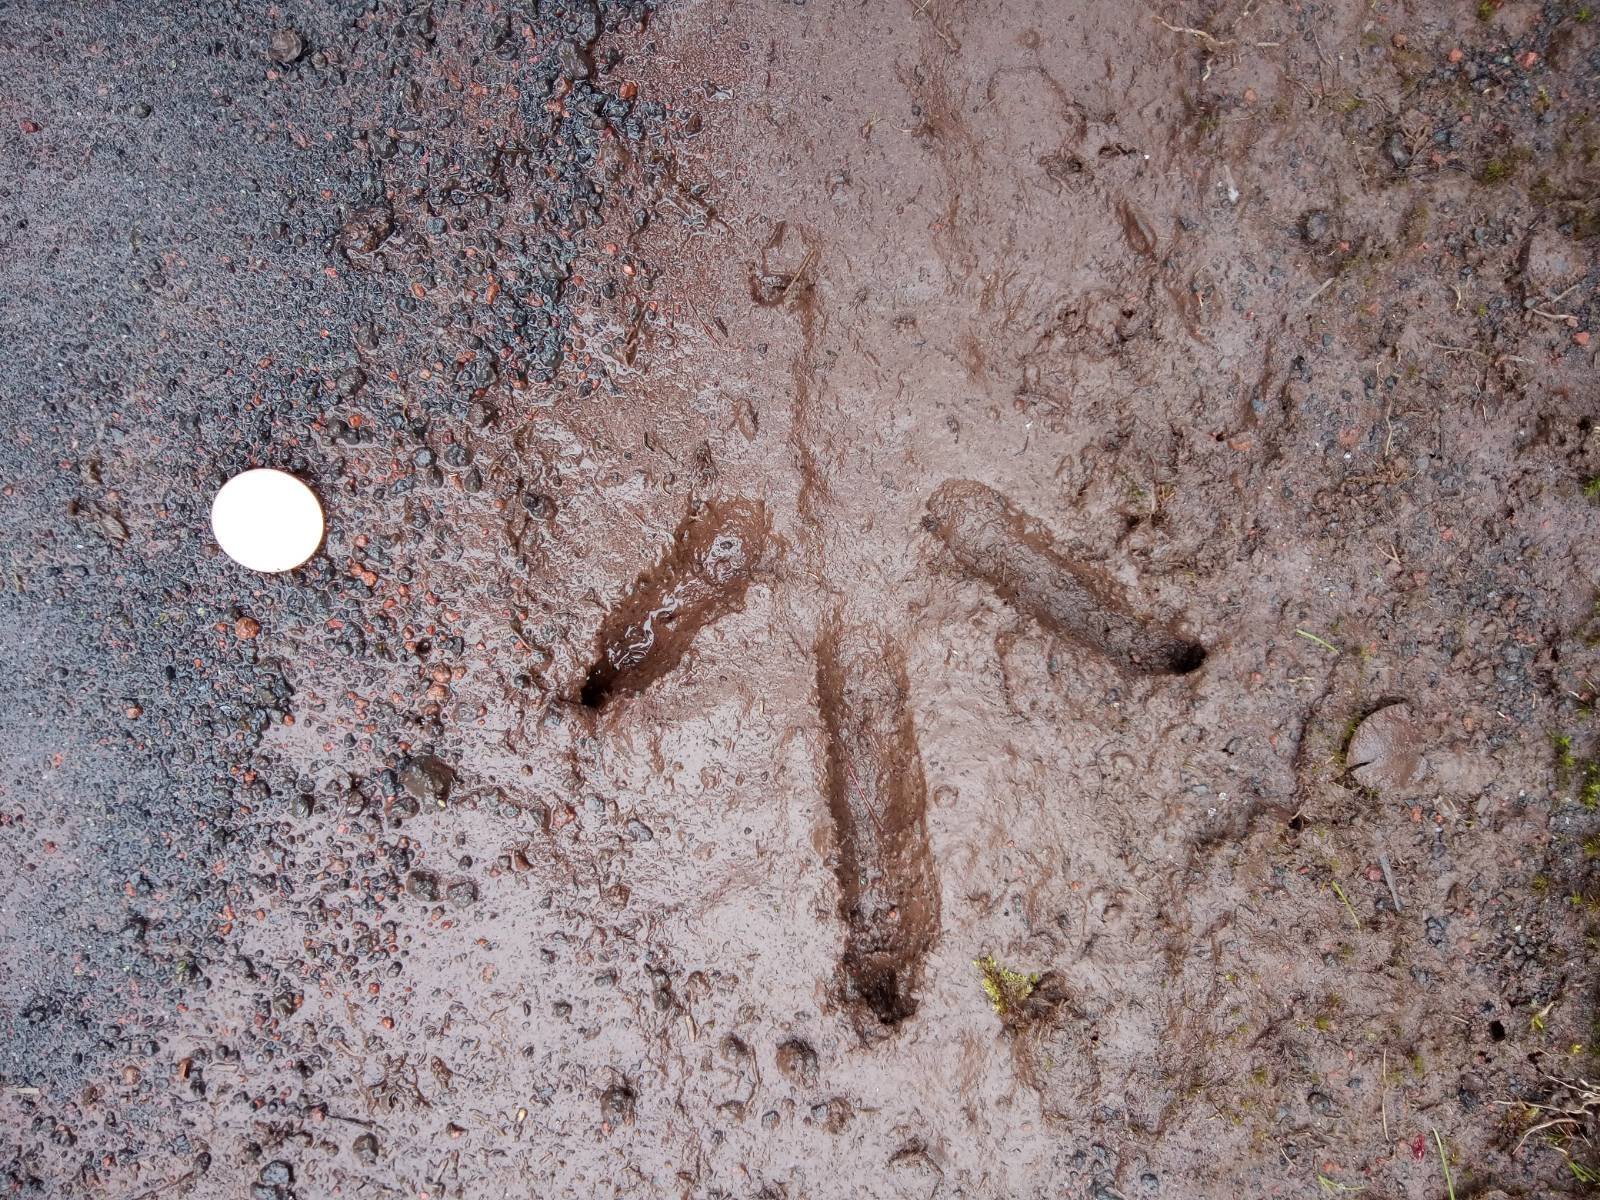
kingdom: Animalia
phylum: Chordata
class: Aves
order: Galliformes
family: Phasianidae
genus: Meleagris
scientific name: Meleagris gallopavo
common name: Wild turkey
